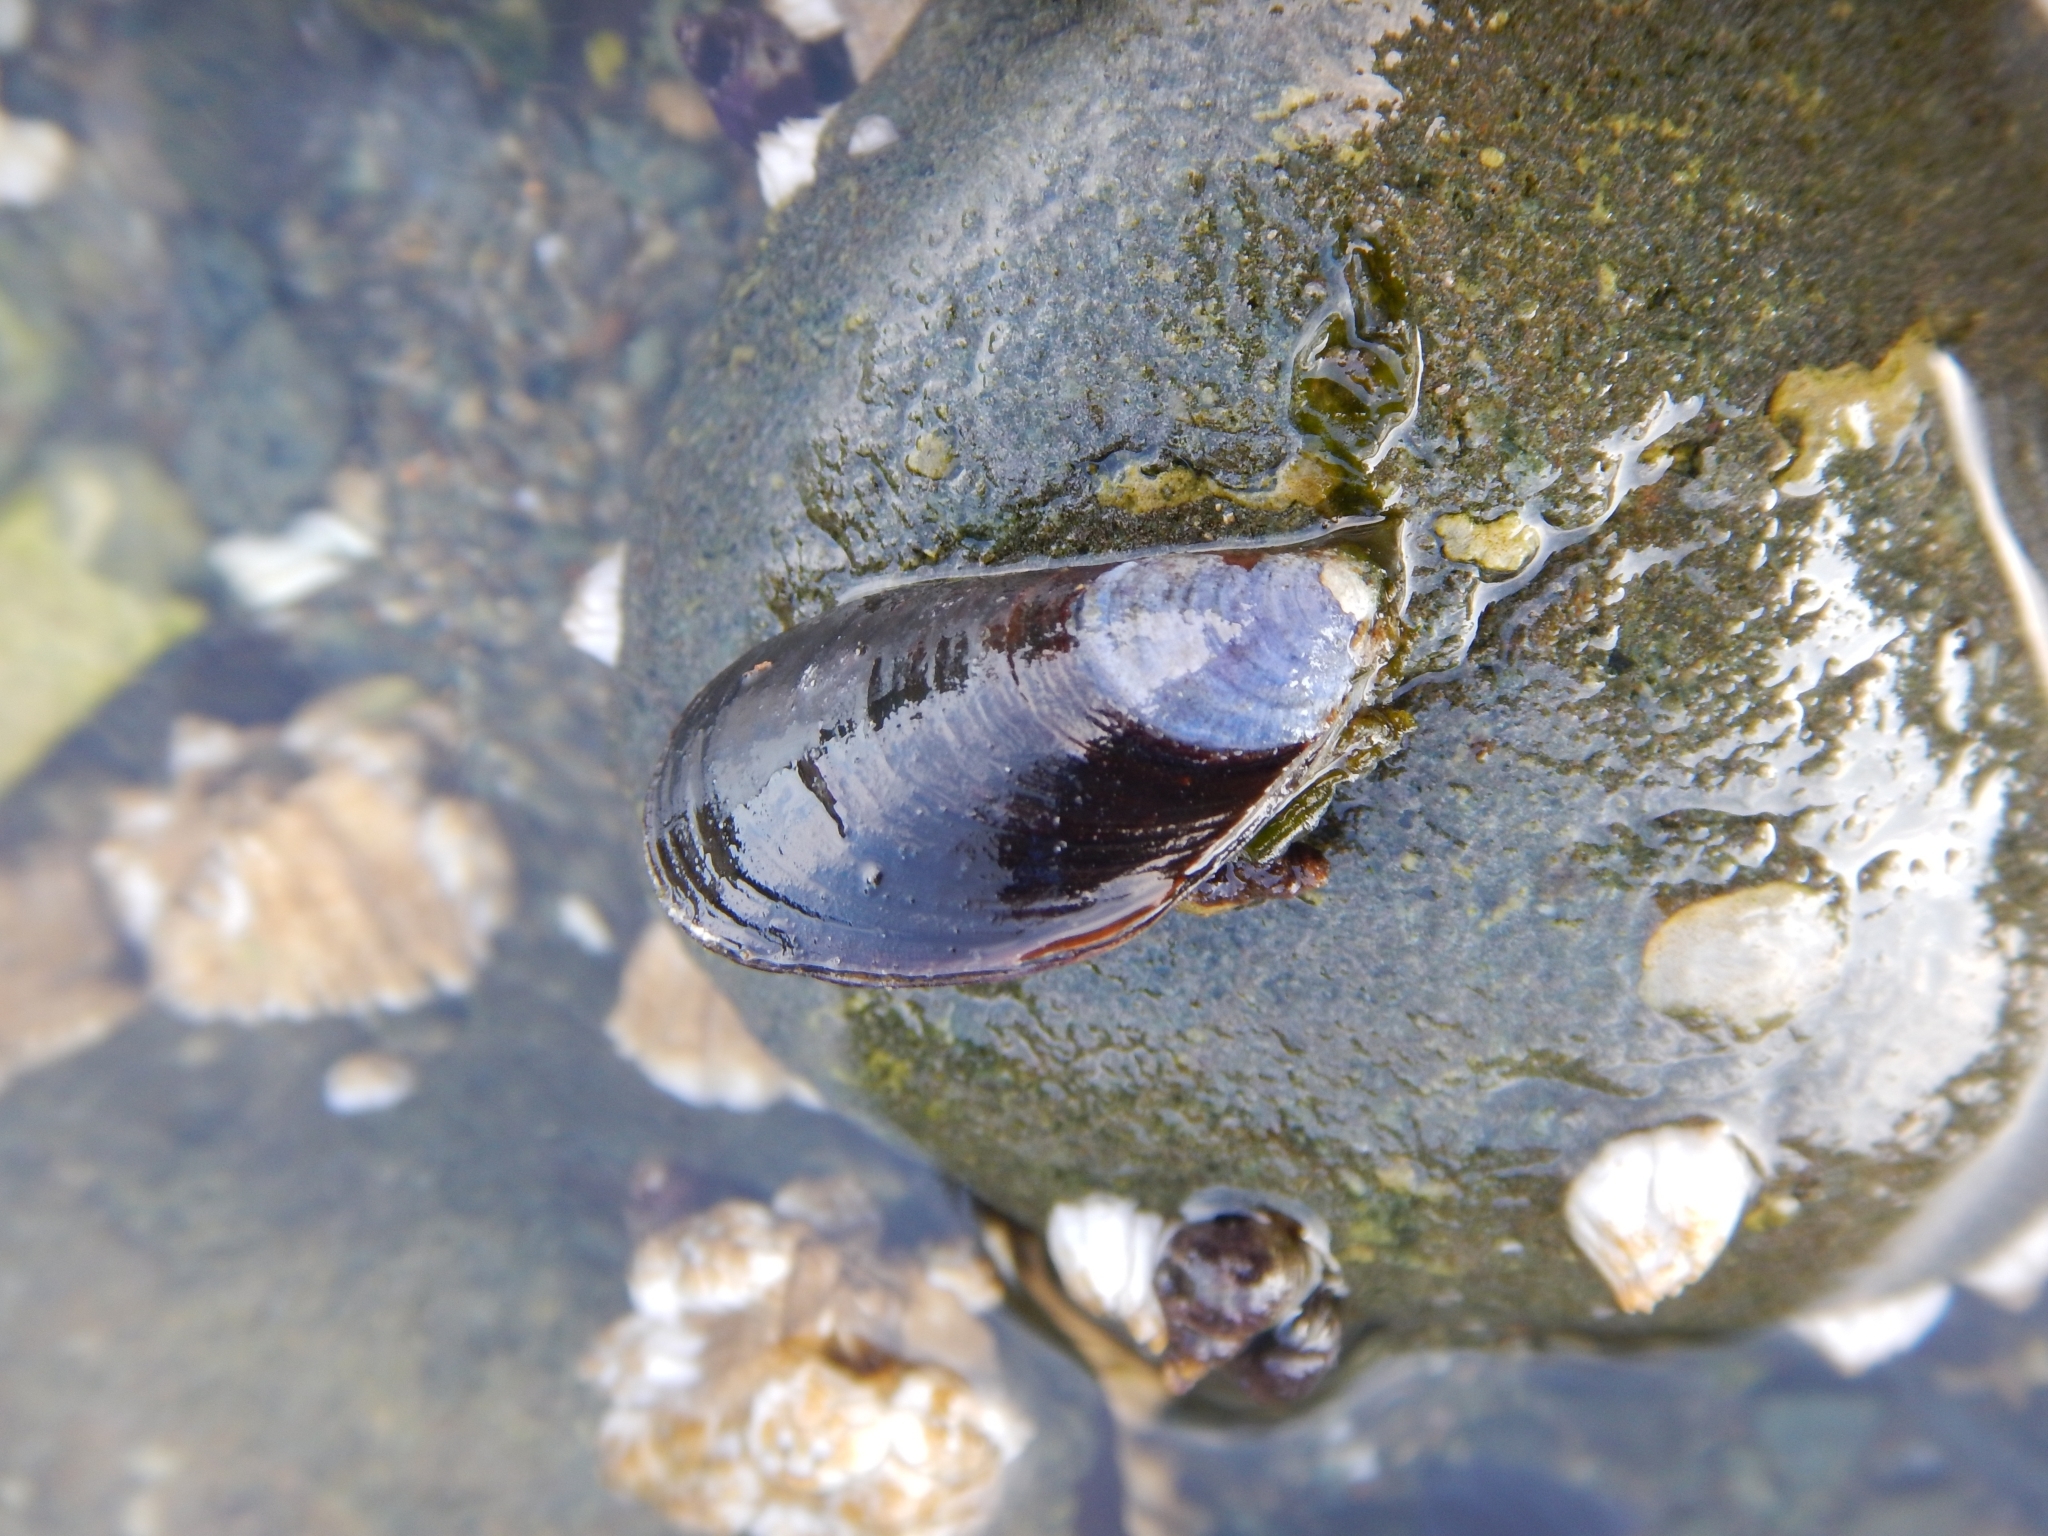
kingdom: Animalia
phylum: Mollusca
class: Bivalvia
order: Mytilida
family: Mytilidae
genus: Mytilus
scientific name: Mytilus trossulus
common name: Northern blue mussel
